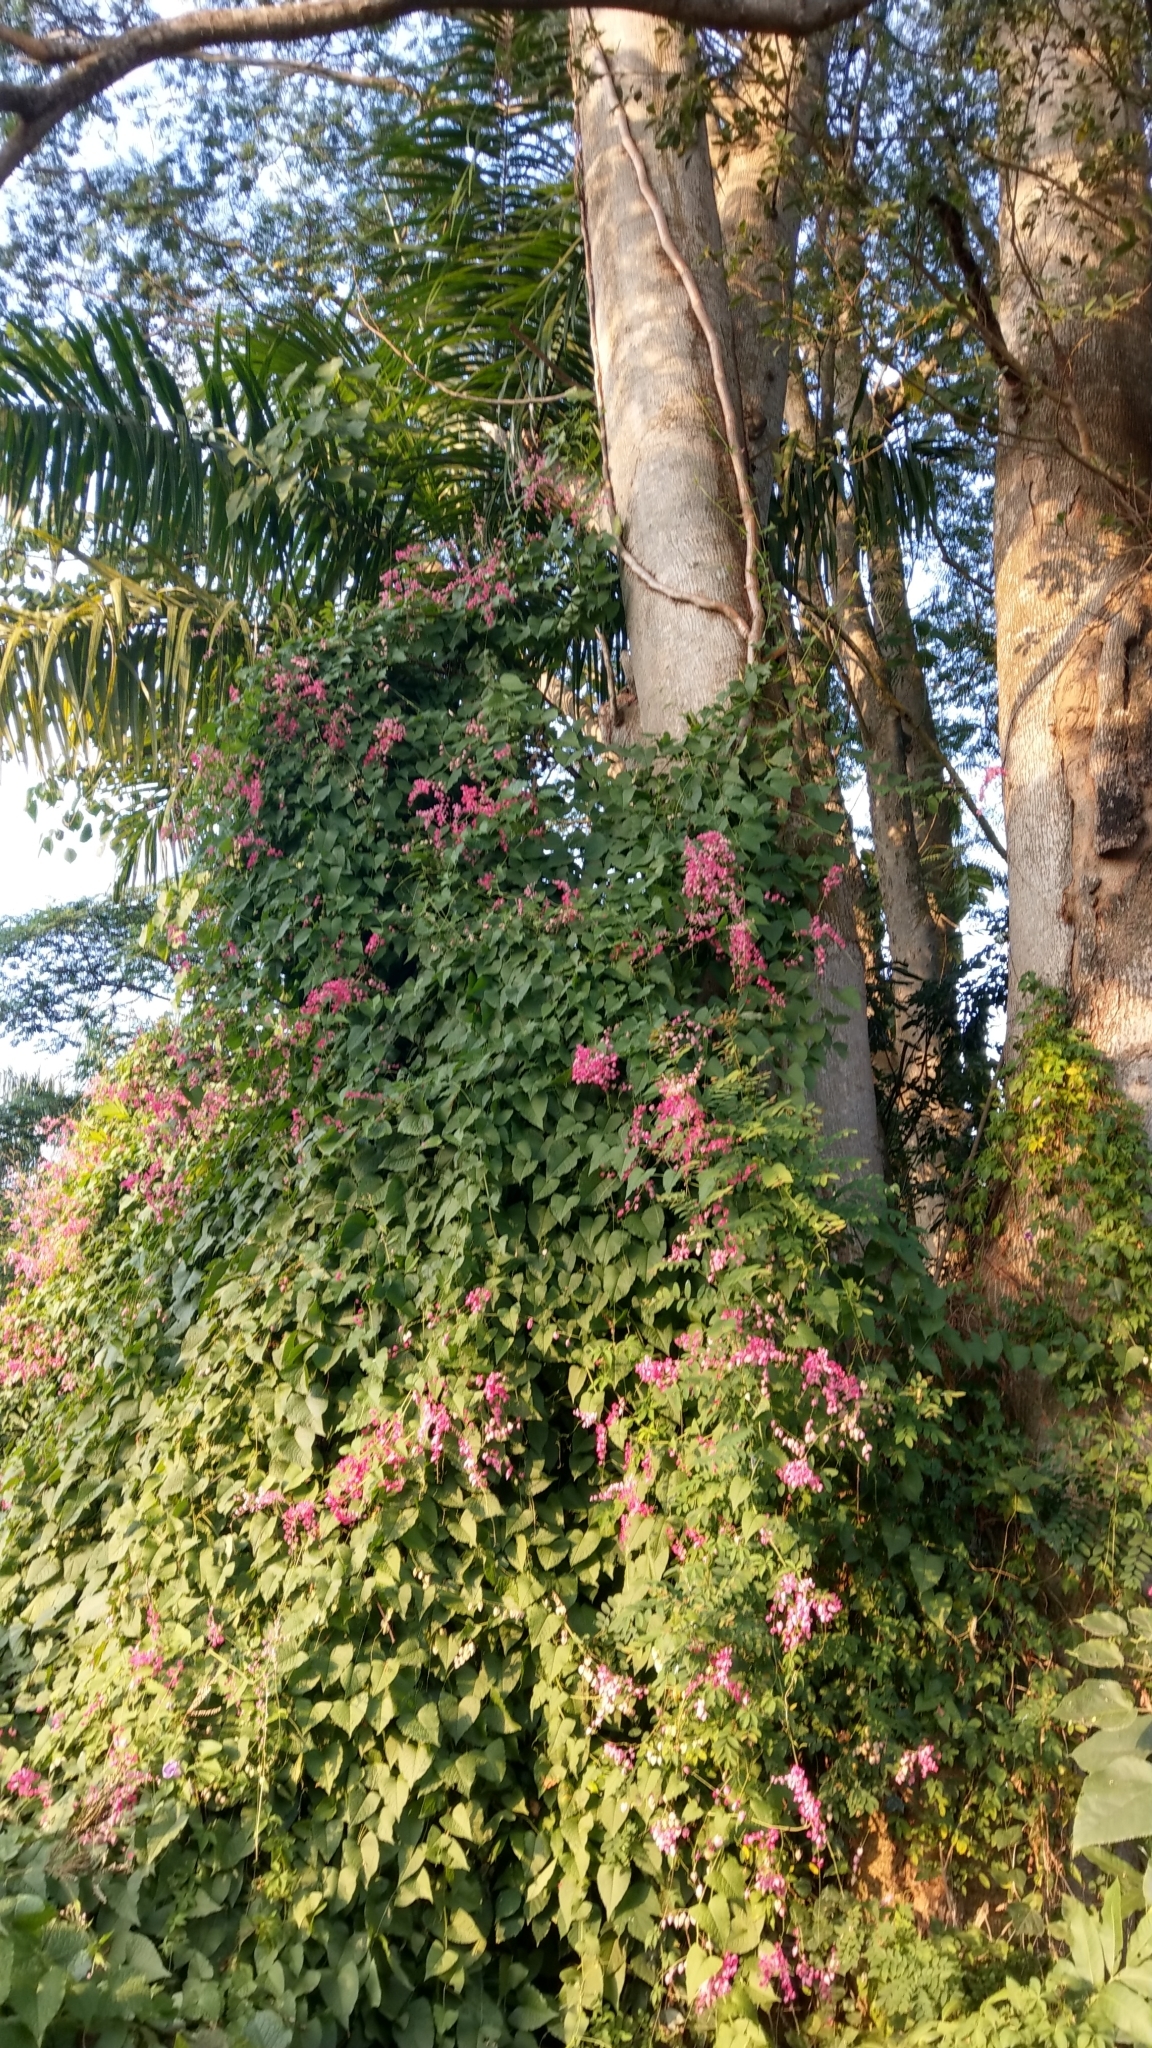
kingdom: Plantae
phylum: Tracheophyta
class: Magnoliopsida
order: Caryophyllales
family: Polygonaceae
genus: Antigonon
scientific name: Antigonon leptopus
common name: Coral vine
